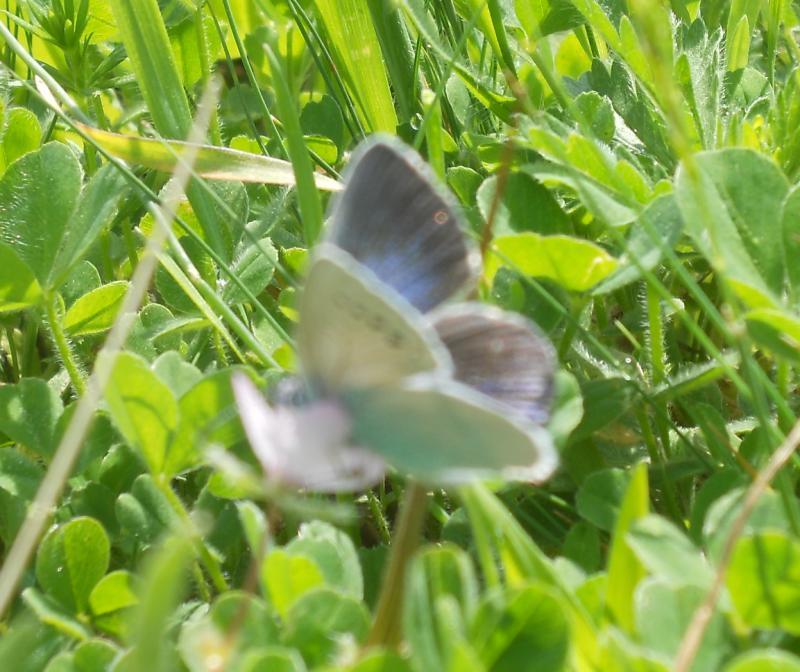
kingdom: Animalia
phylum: Arthropoda
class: Insecta
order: Lepidoptera
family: Lycaenidae
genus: Glaucopsyche
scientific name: Glaucopsyche alexis
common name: Green-underside blue
